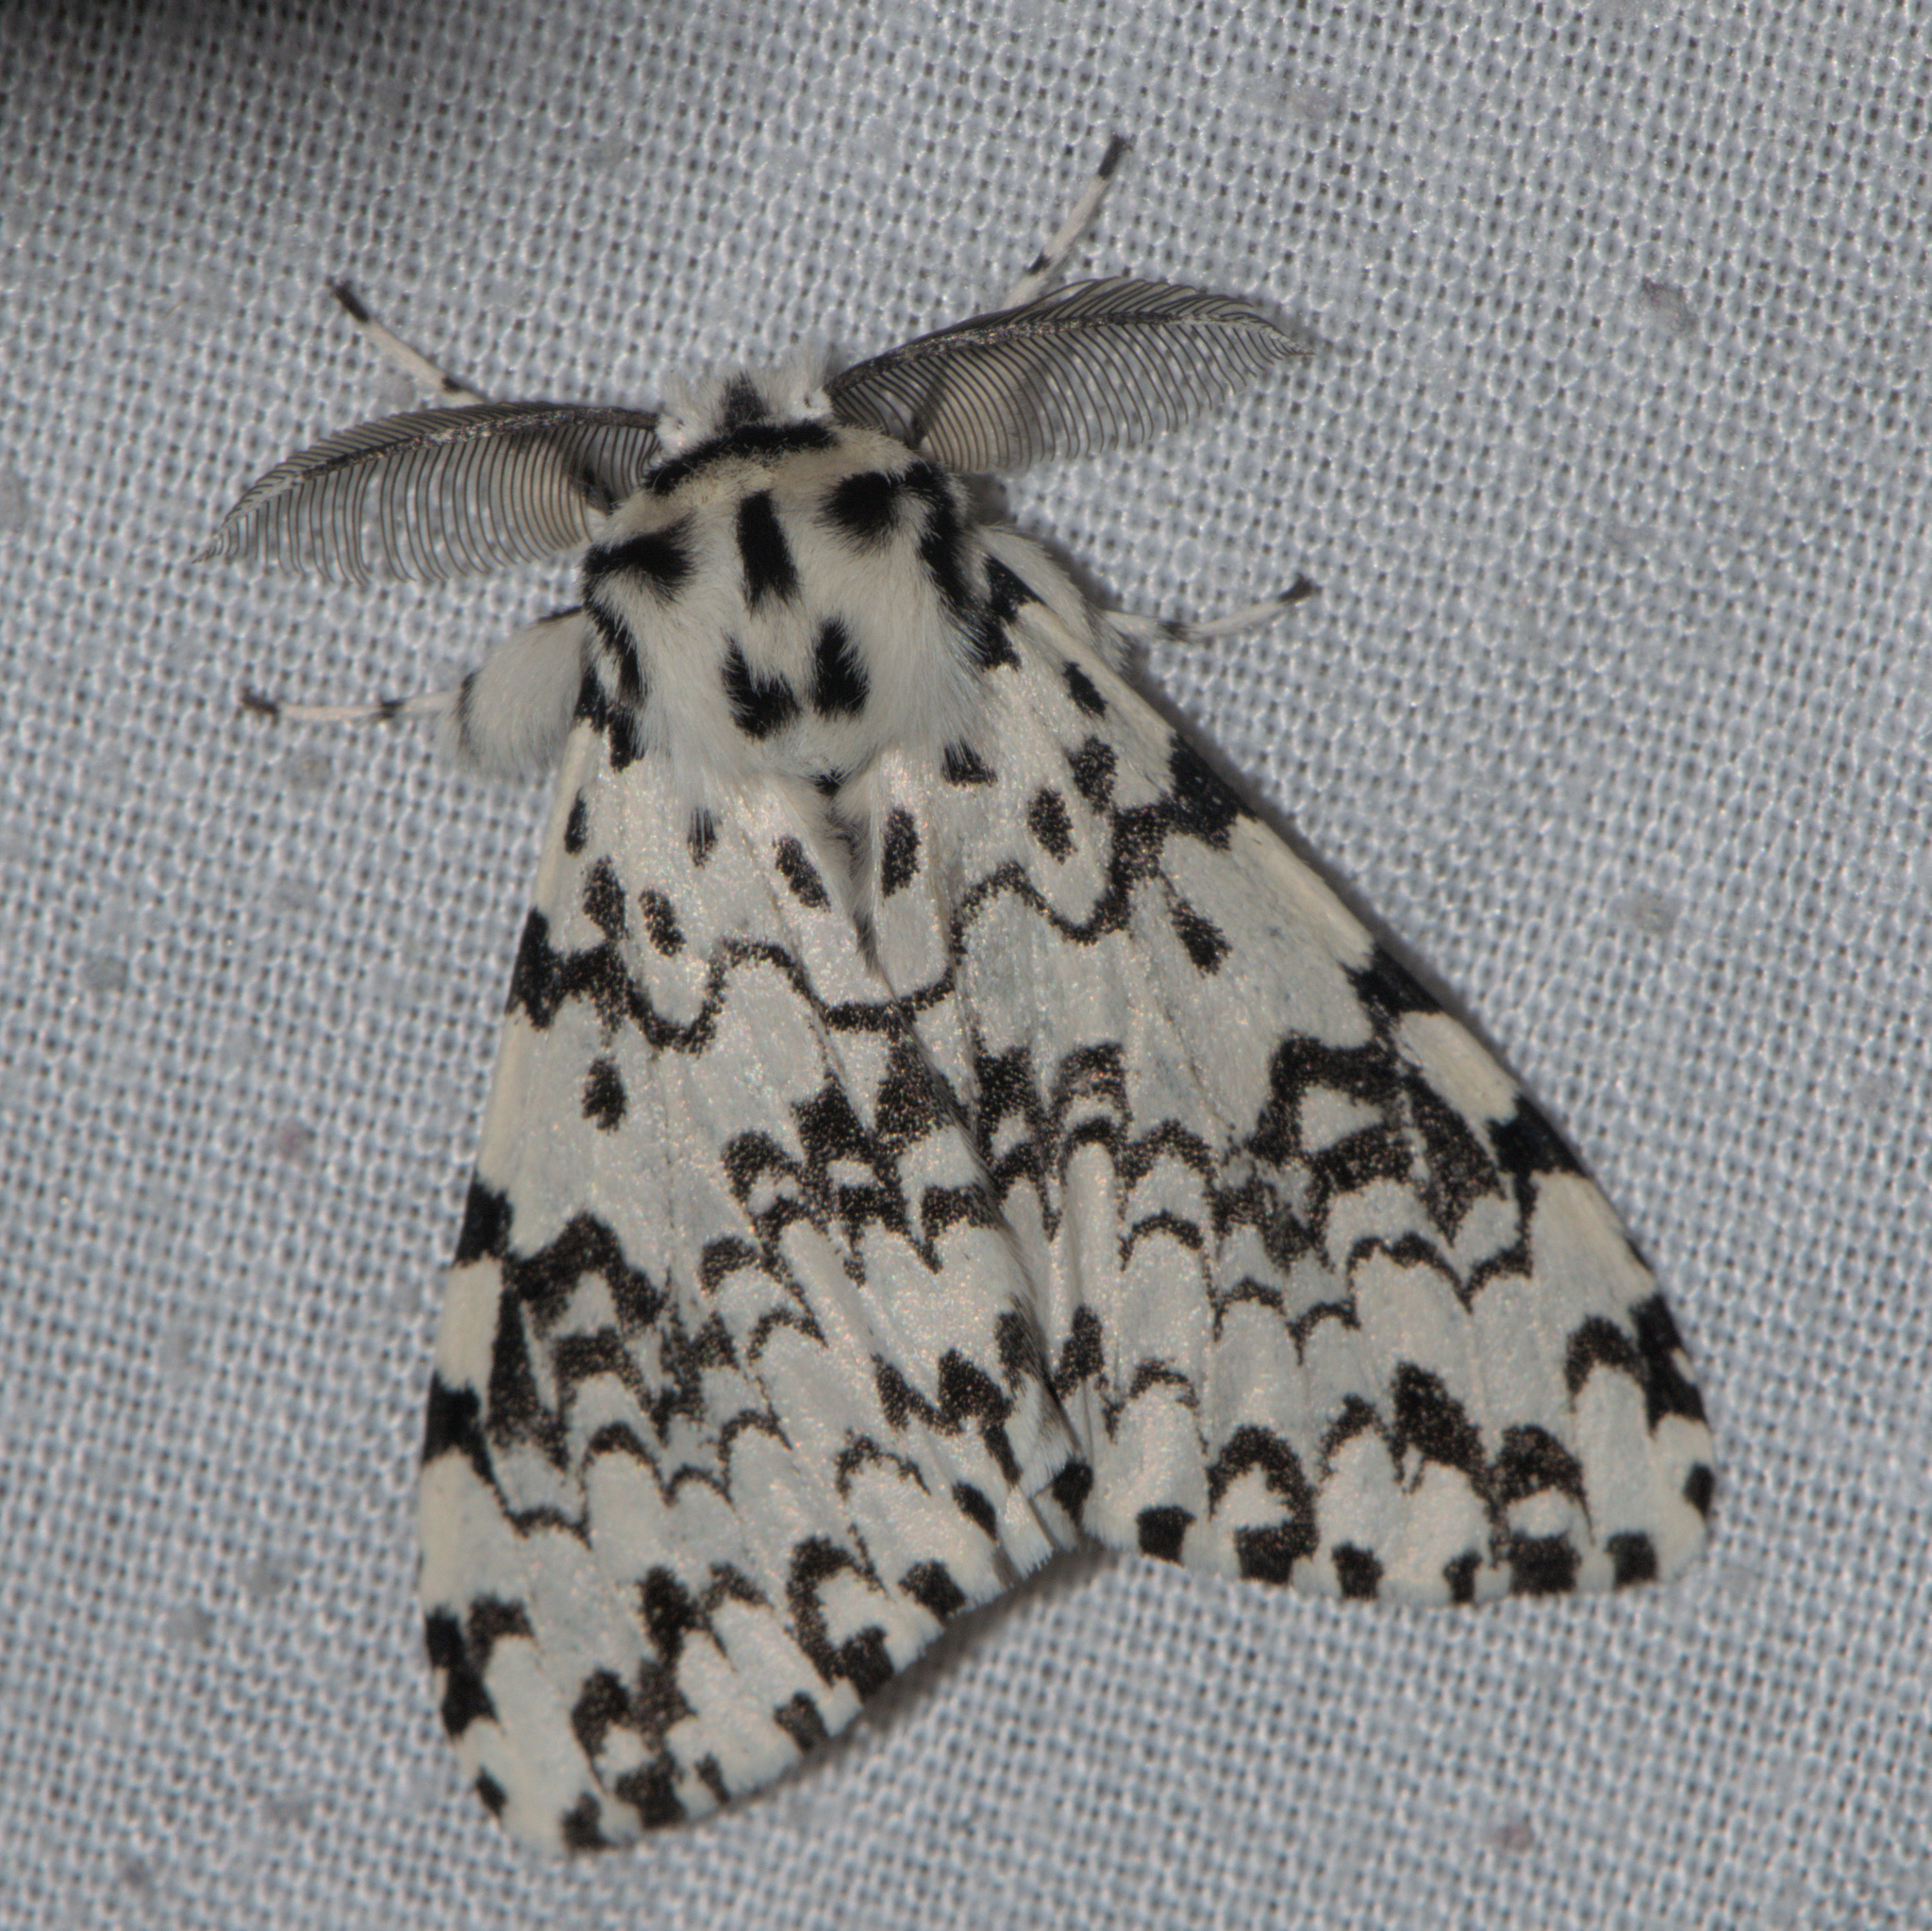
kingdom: Animalia
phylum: Arthropoda
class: Insecta
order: Lepidoptera
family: Erebidae
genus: Lymantria
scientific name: Lymantria concolor
